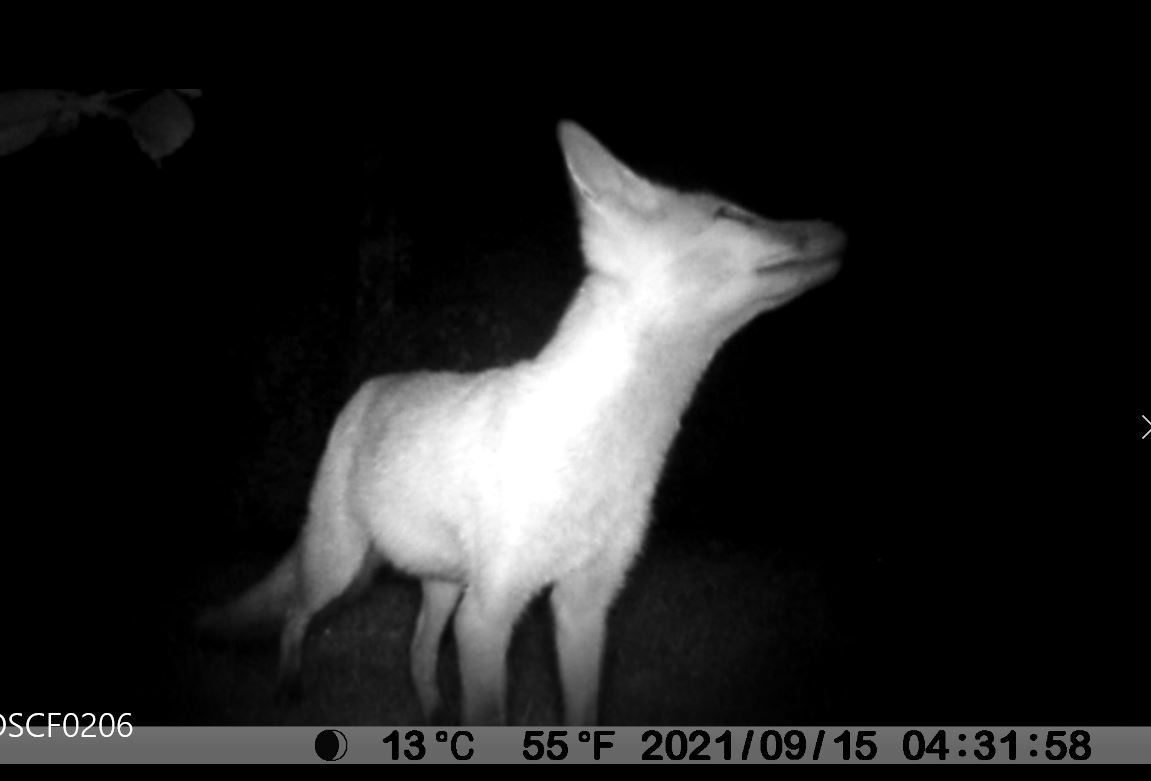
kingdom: Animalia
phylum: Chordata
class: Mammalia
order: Carnivora
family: Canidae
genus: Vulpes
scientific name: Vulpes vulpes
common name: Red fox
